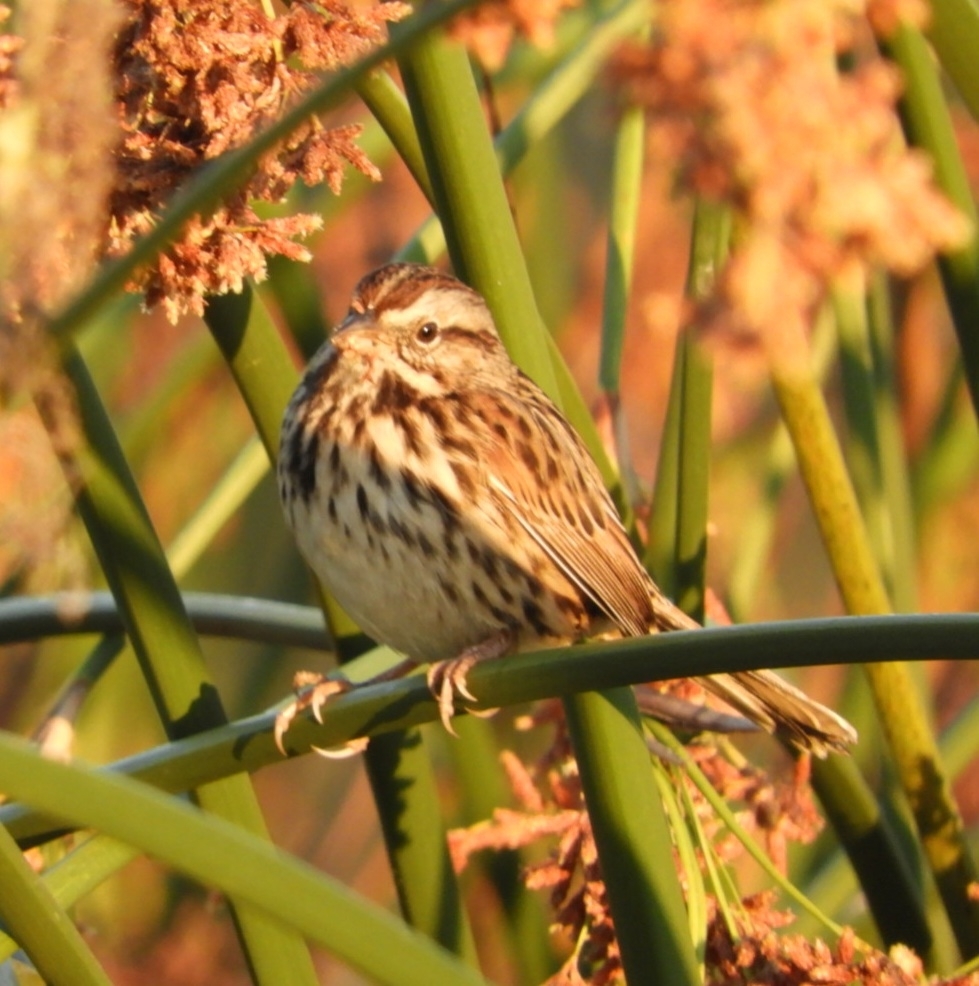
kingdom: Animalia
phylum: Chordata
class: Aves
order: Passeriformes
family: Passerellidae
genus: Melospiza
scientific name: Melospiza melodia
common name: Song sparrow
